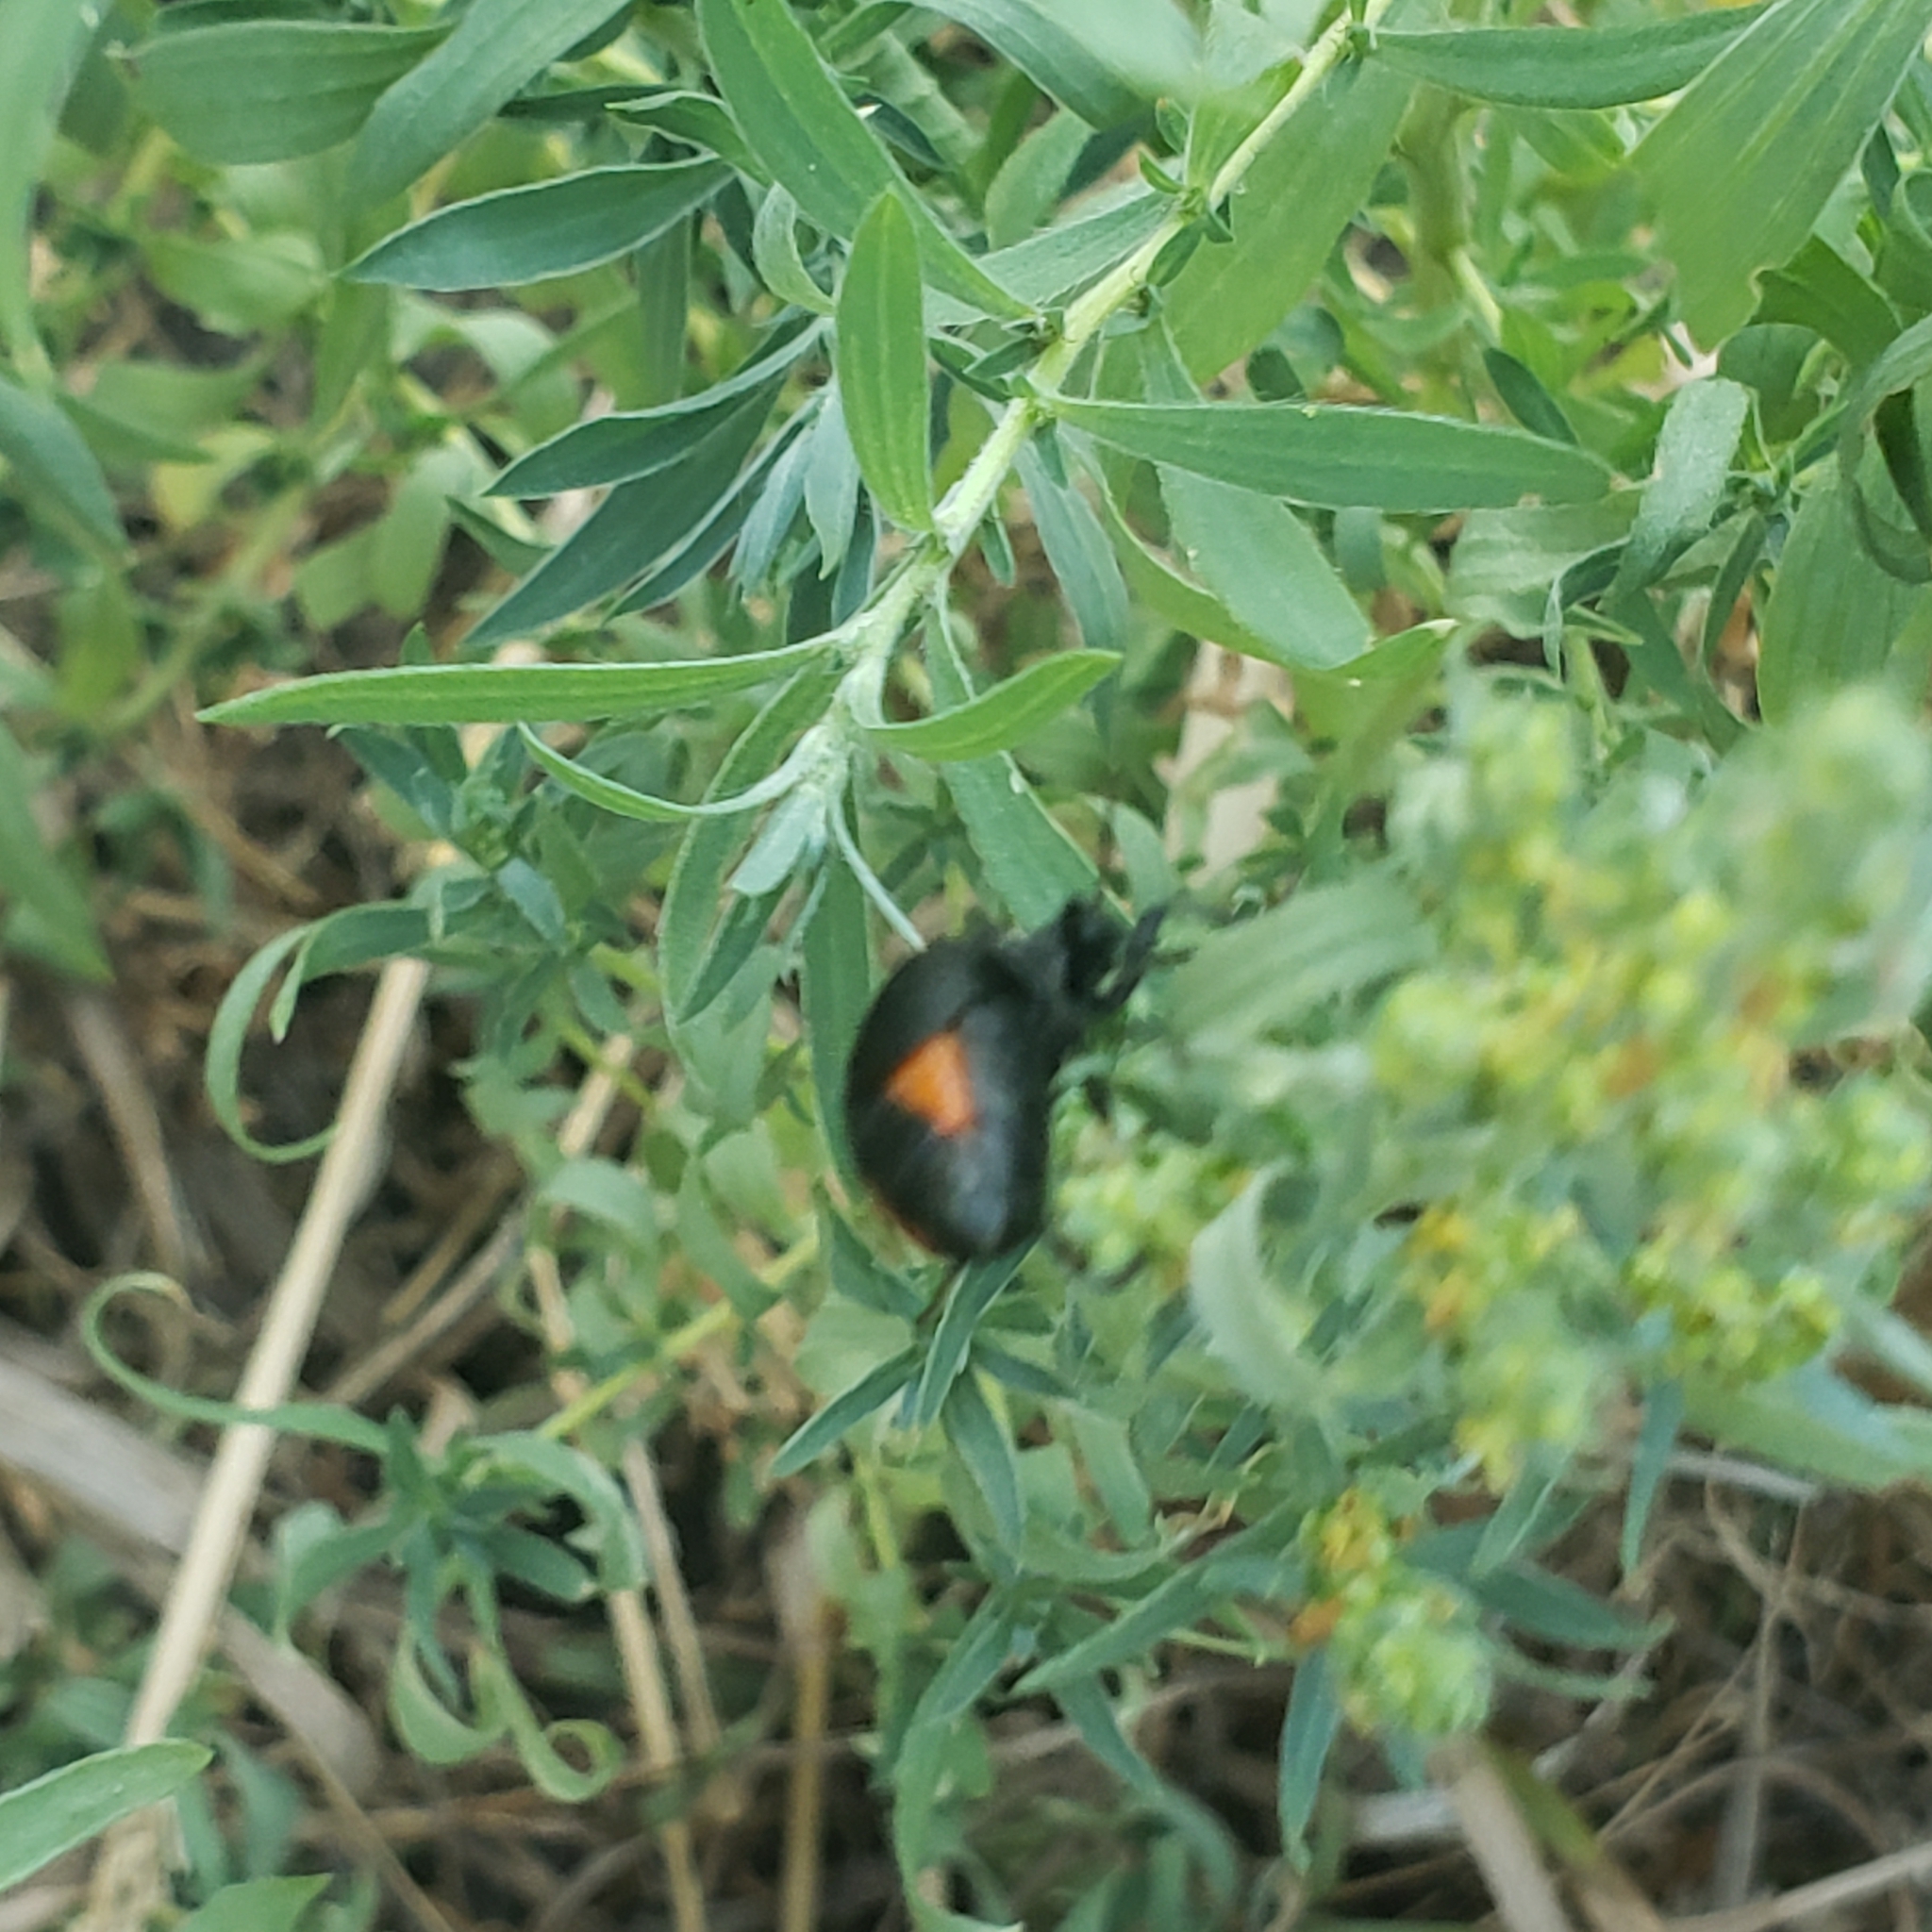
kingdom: Animalia
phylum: Arthropoda
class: Insecta
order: Coleoptera
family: Meloidae
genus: Epicauta
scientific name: Epicauta conferta
